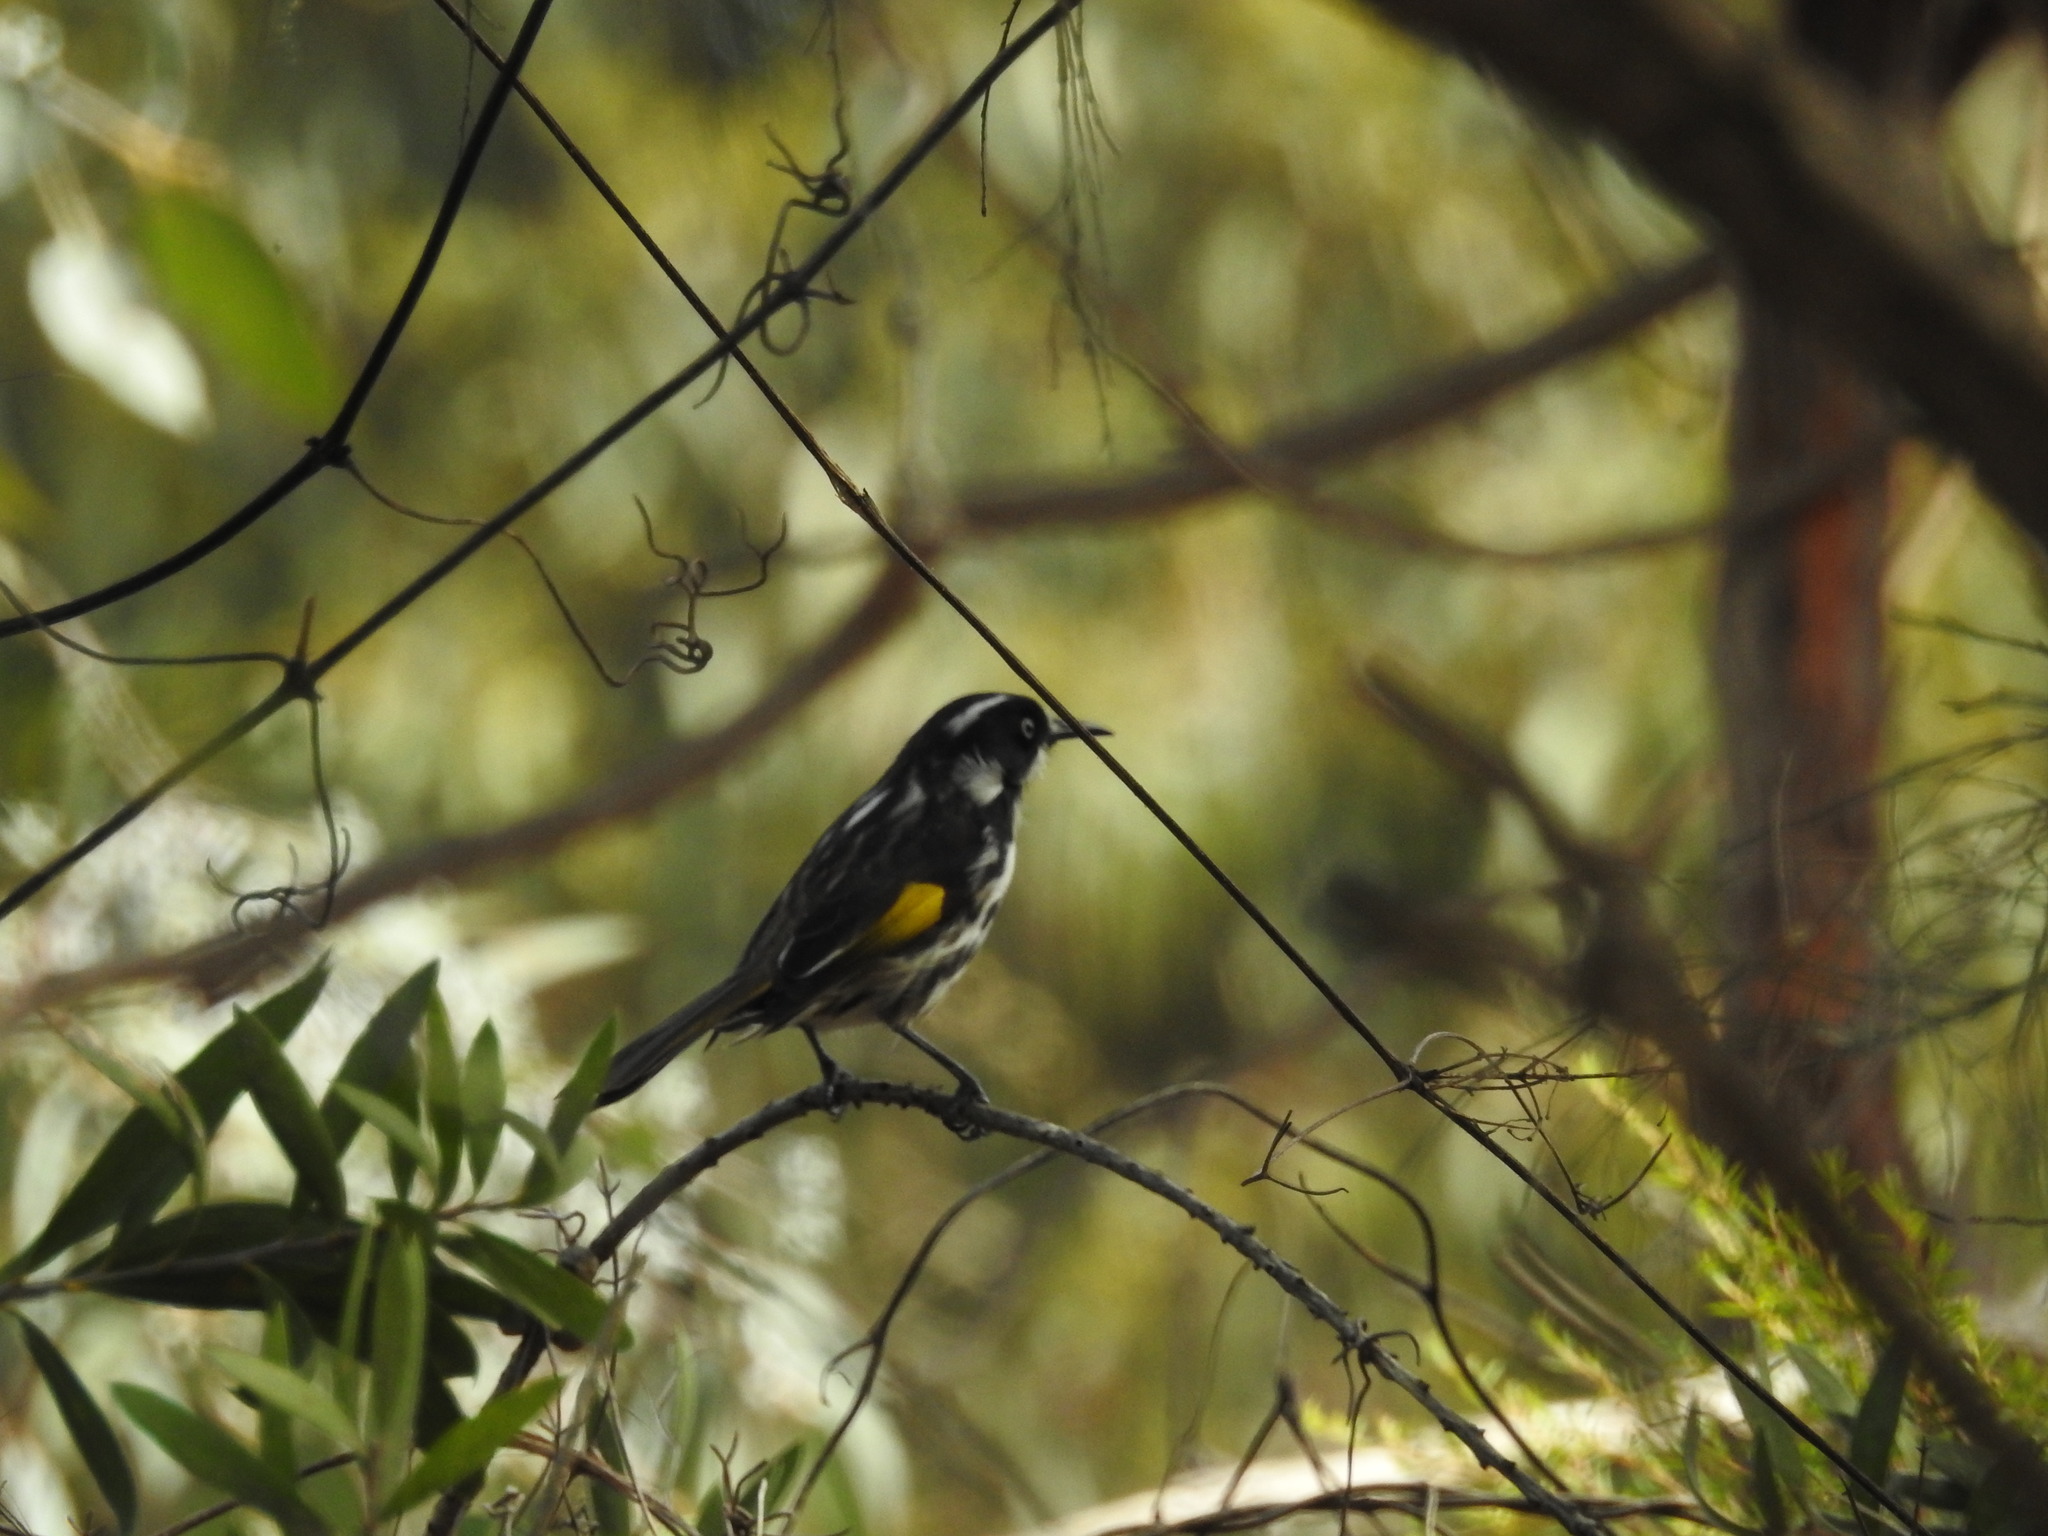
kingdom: Animalia
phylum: Chordata
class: Aves
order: Passeriformes
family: Meliphagidae
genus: Phylidonyris
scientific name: Phylidonyris novaehollandiae
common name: New holland honeyeater
